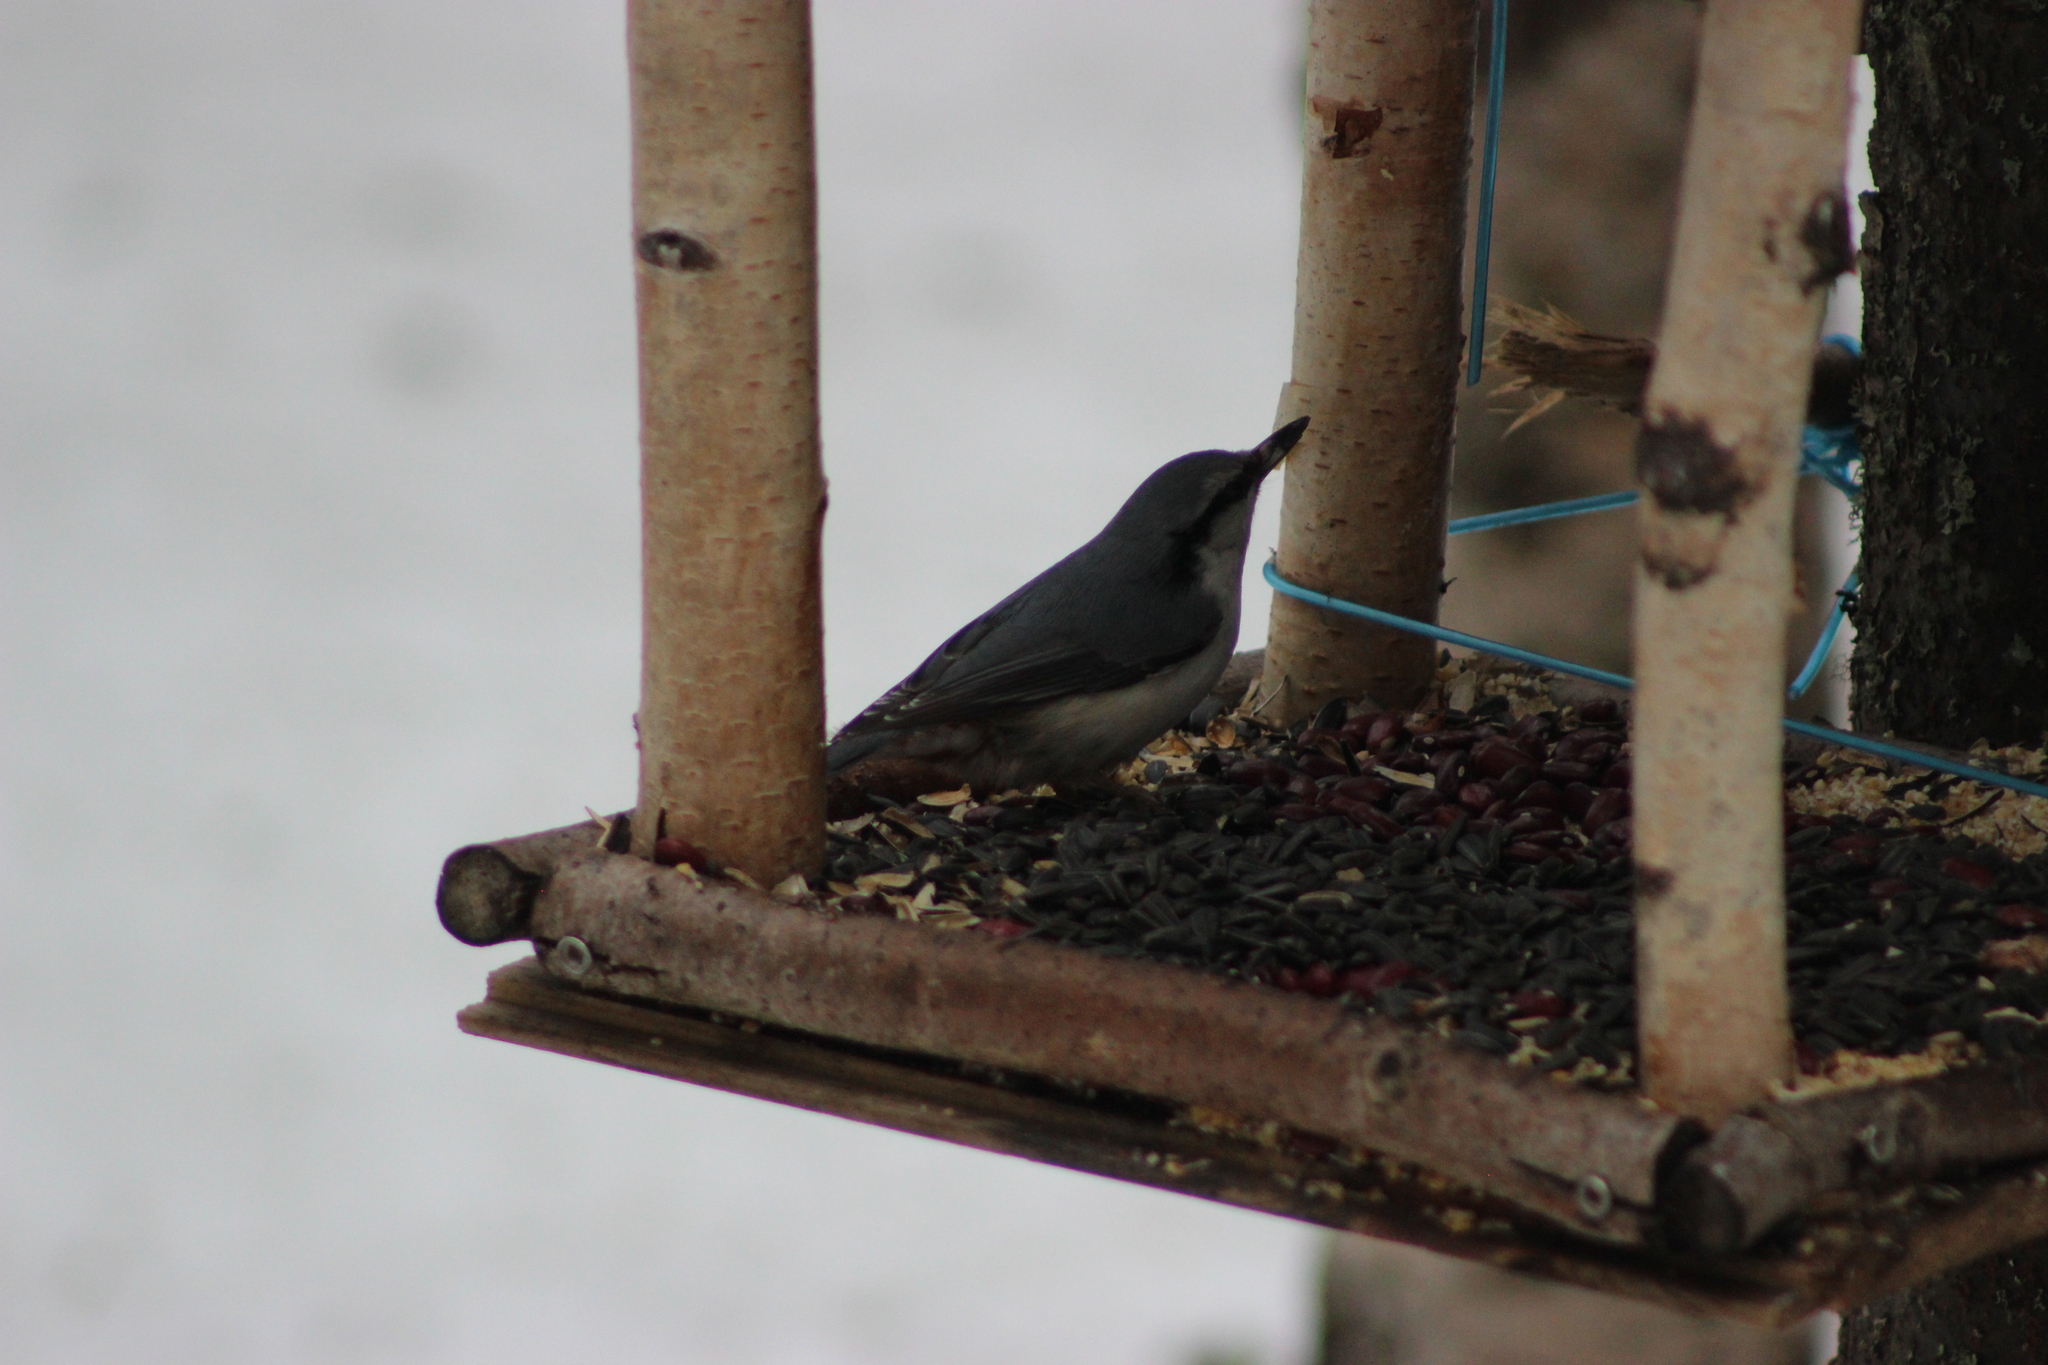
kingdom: Animalia
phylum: Chordata
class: Aves
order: Passeriformes
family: Sittidae
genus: Sitta
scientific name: Sitta europaea
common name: Eurasian nuthatch
